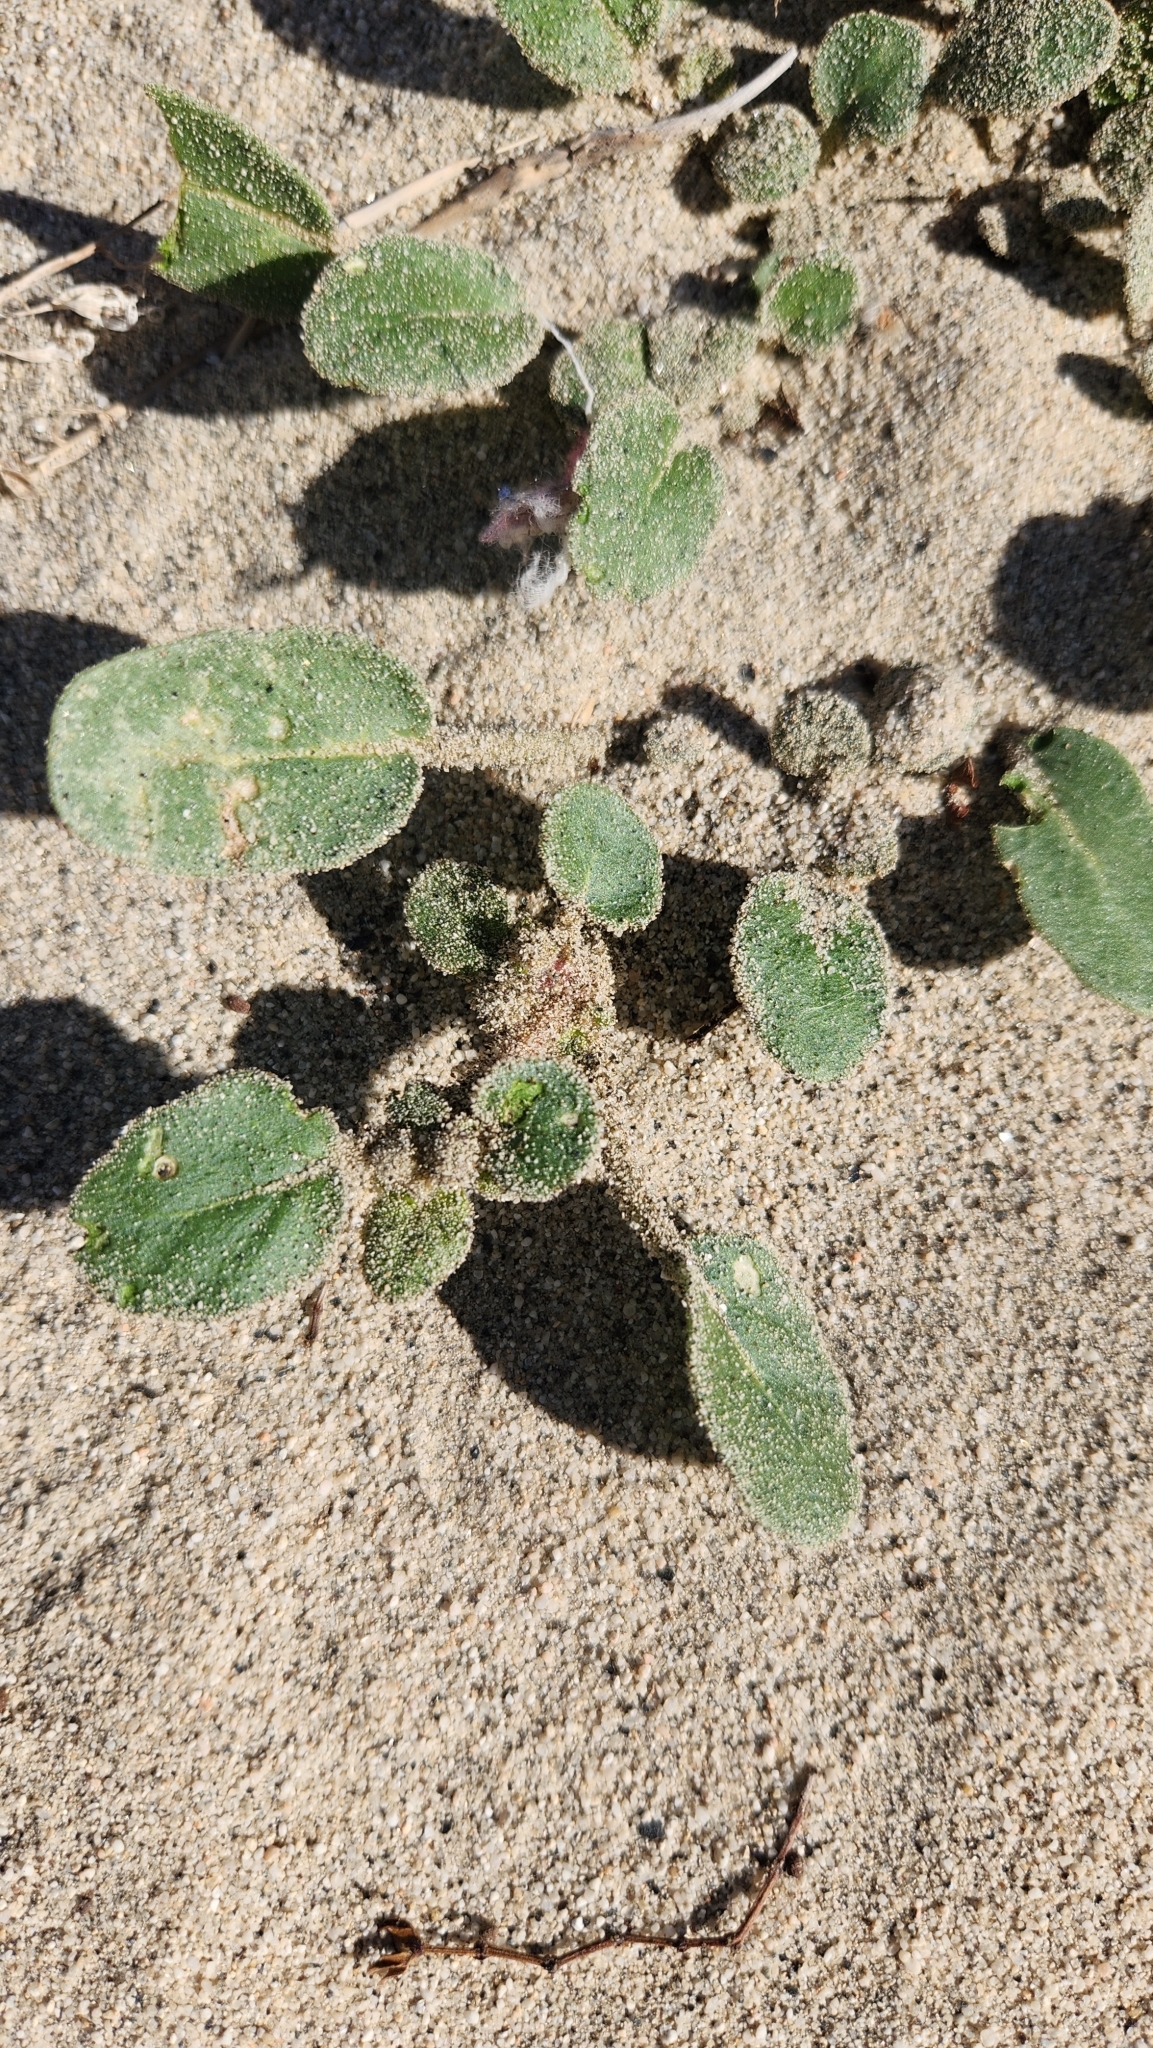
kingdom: Plantae
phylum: Tracheophyta
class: Magnoliopsida
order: Caryophyllales
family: Nyctaginaceae
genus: Abronia
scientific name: Abronia villosa
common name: Desert sand-verbena
